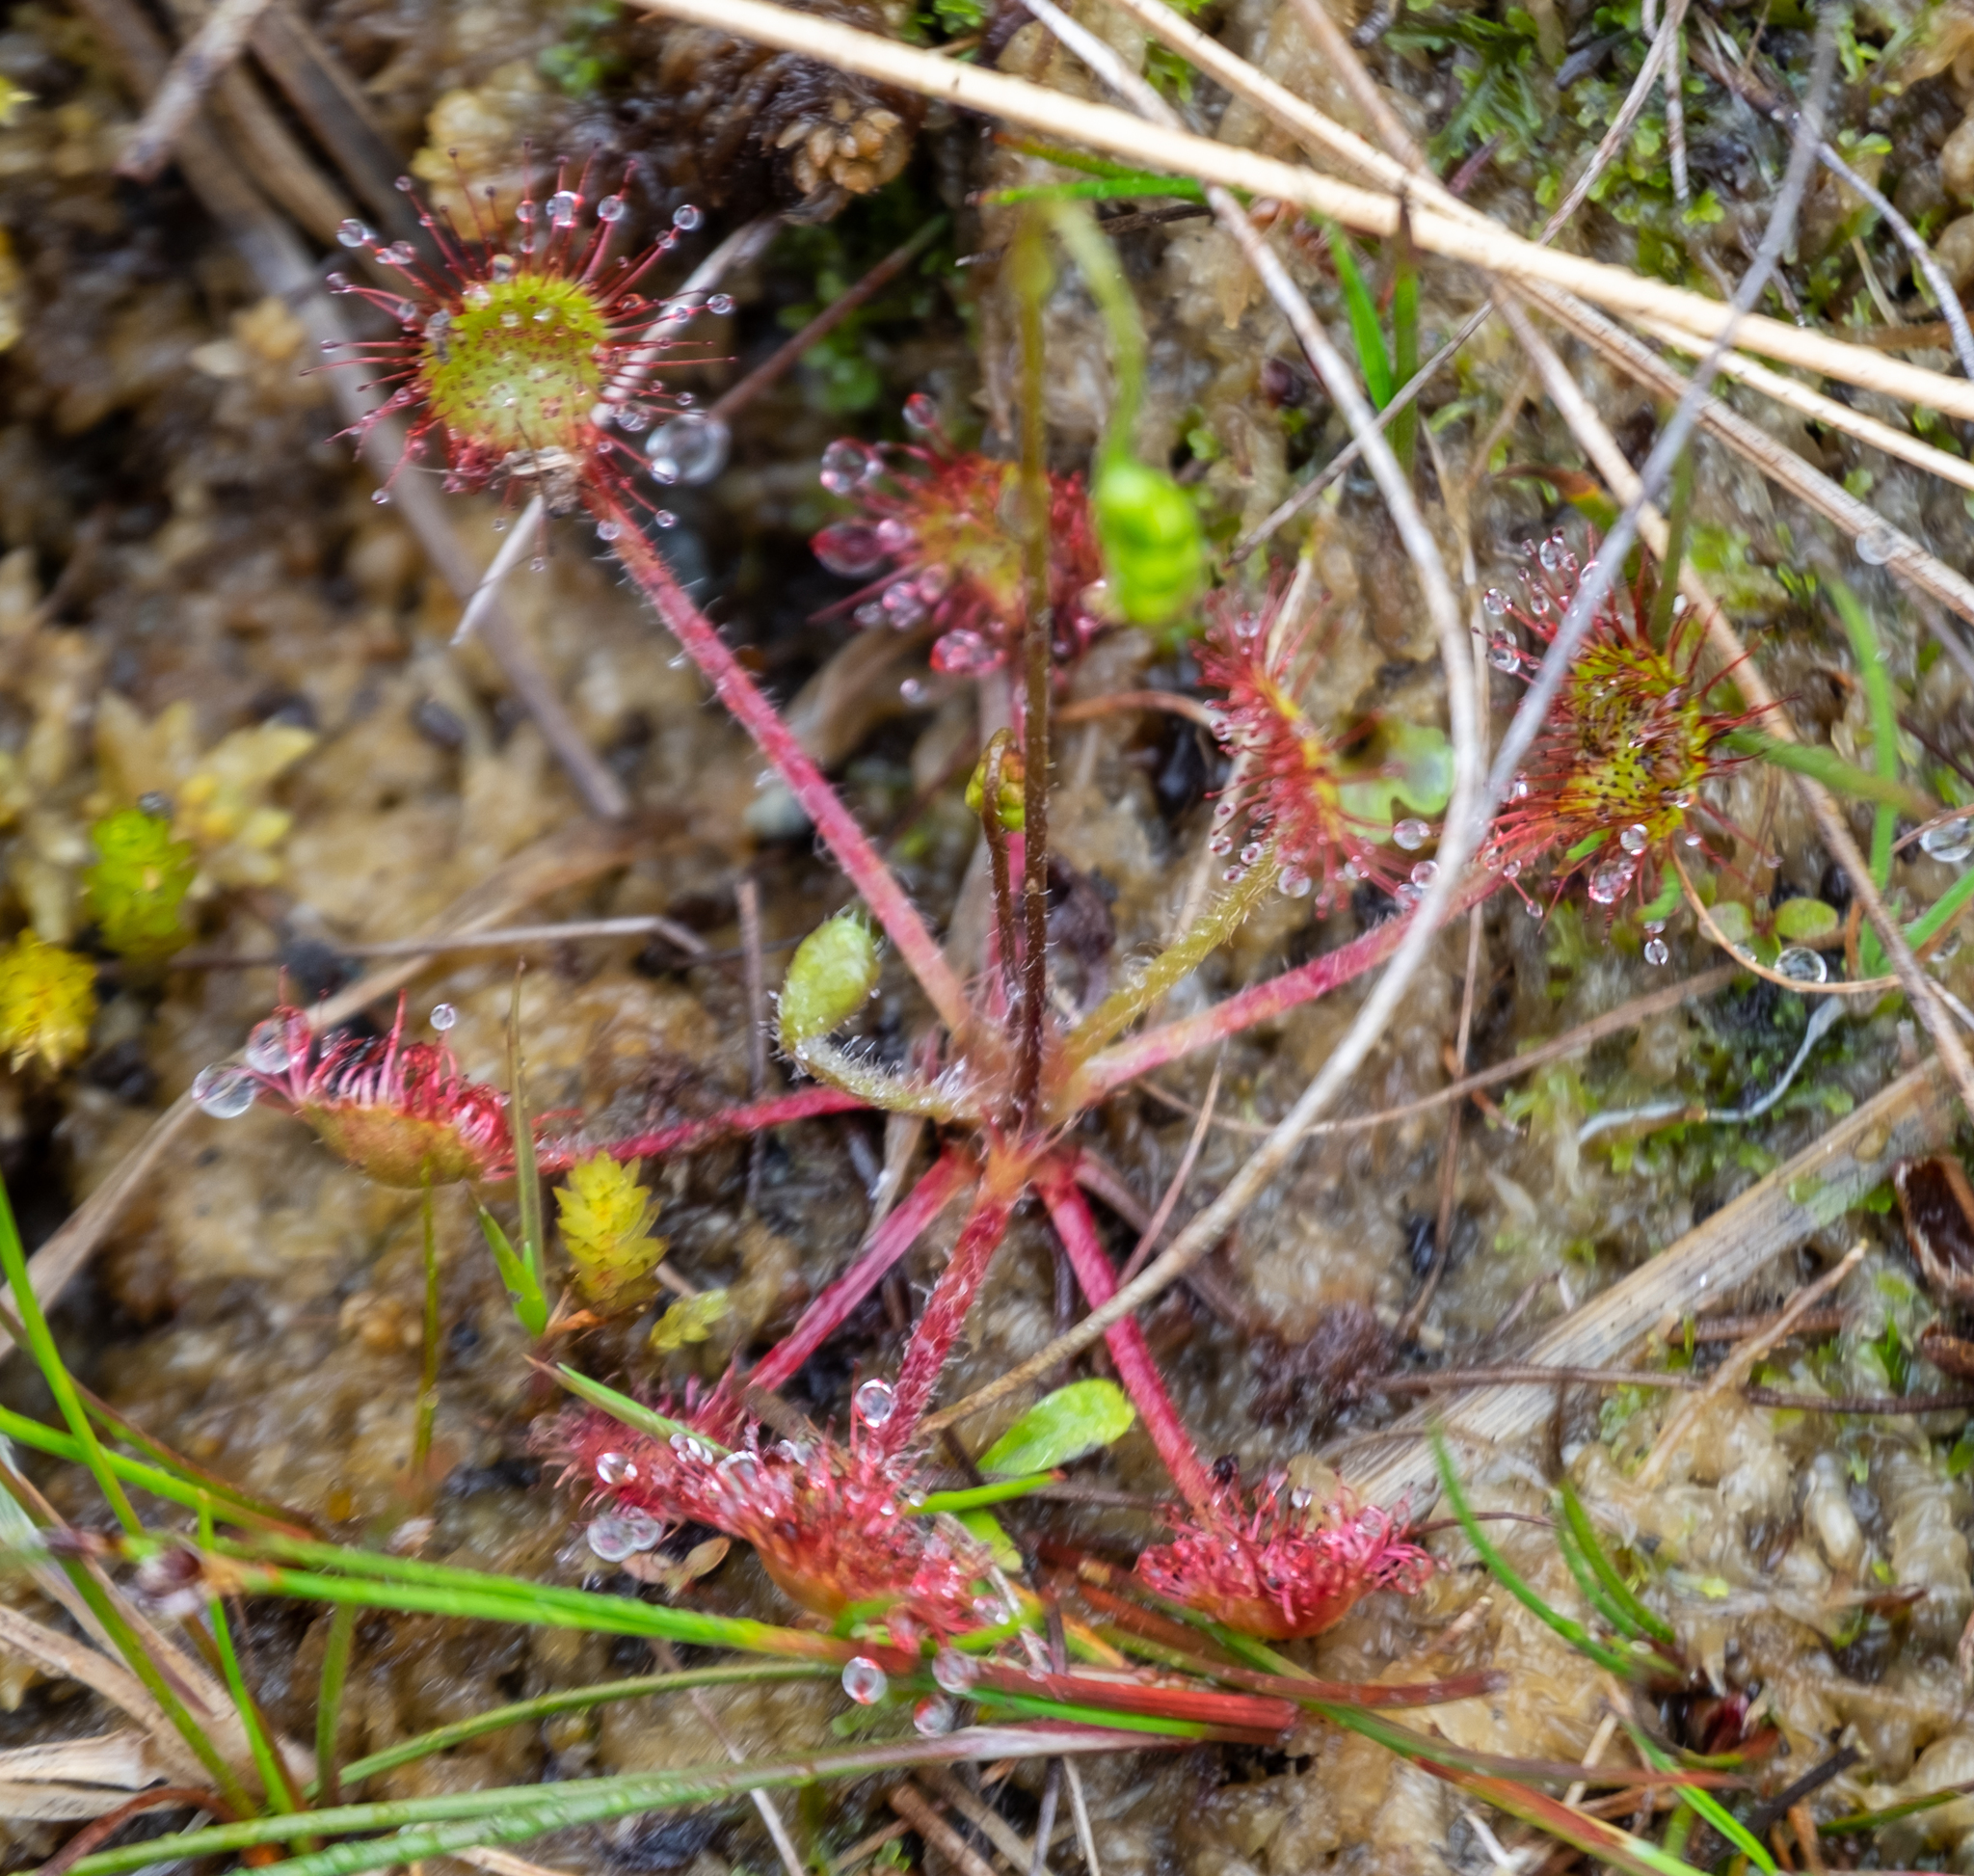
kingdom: Plantae
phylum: Tracheophyta
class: Magnoliopsida
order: Caryophyllales
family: Droseraceae
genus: Drosera
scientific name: Drosera rotundifolia
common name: Round-leaved sundew
